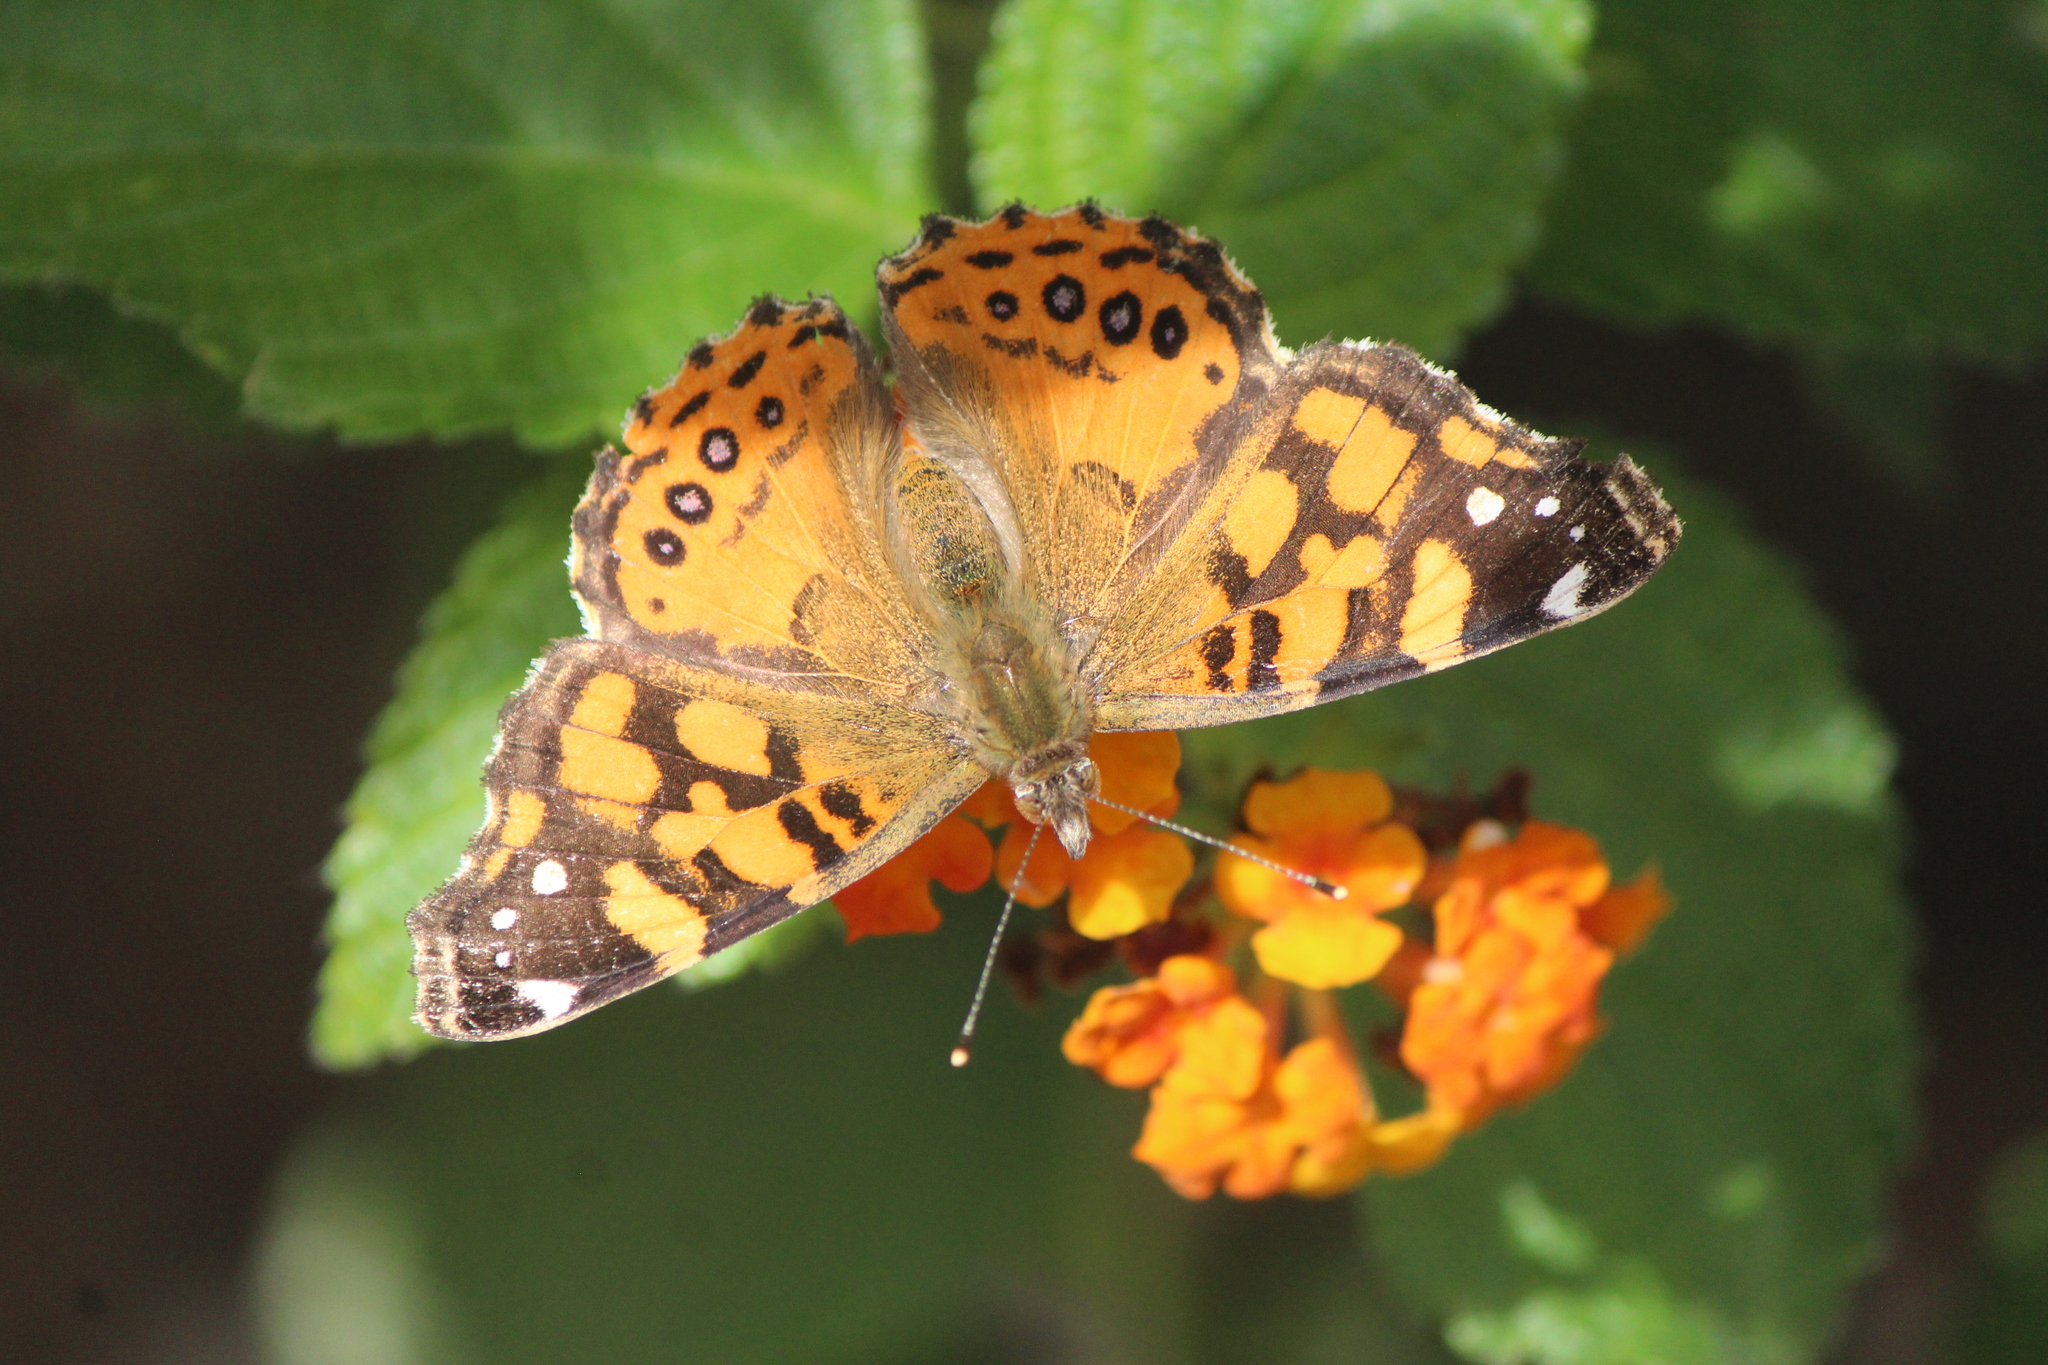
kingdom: Animalia
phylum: Arthropoda
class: Insecta
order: Lepidoptera
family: Nymphalidae
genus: Vanessa
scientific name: Vanessa annabella
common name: West coast lady
